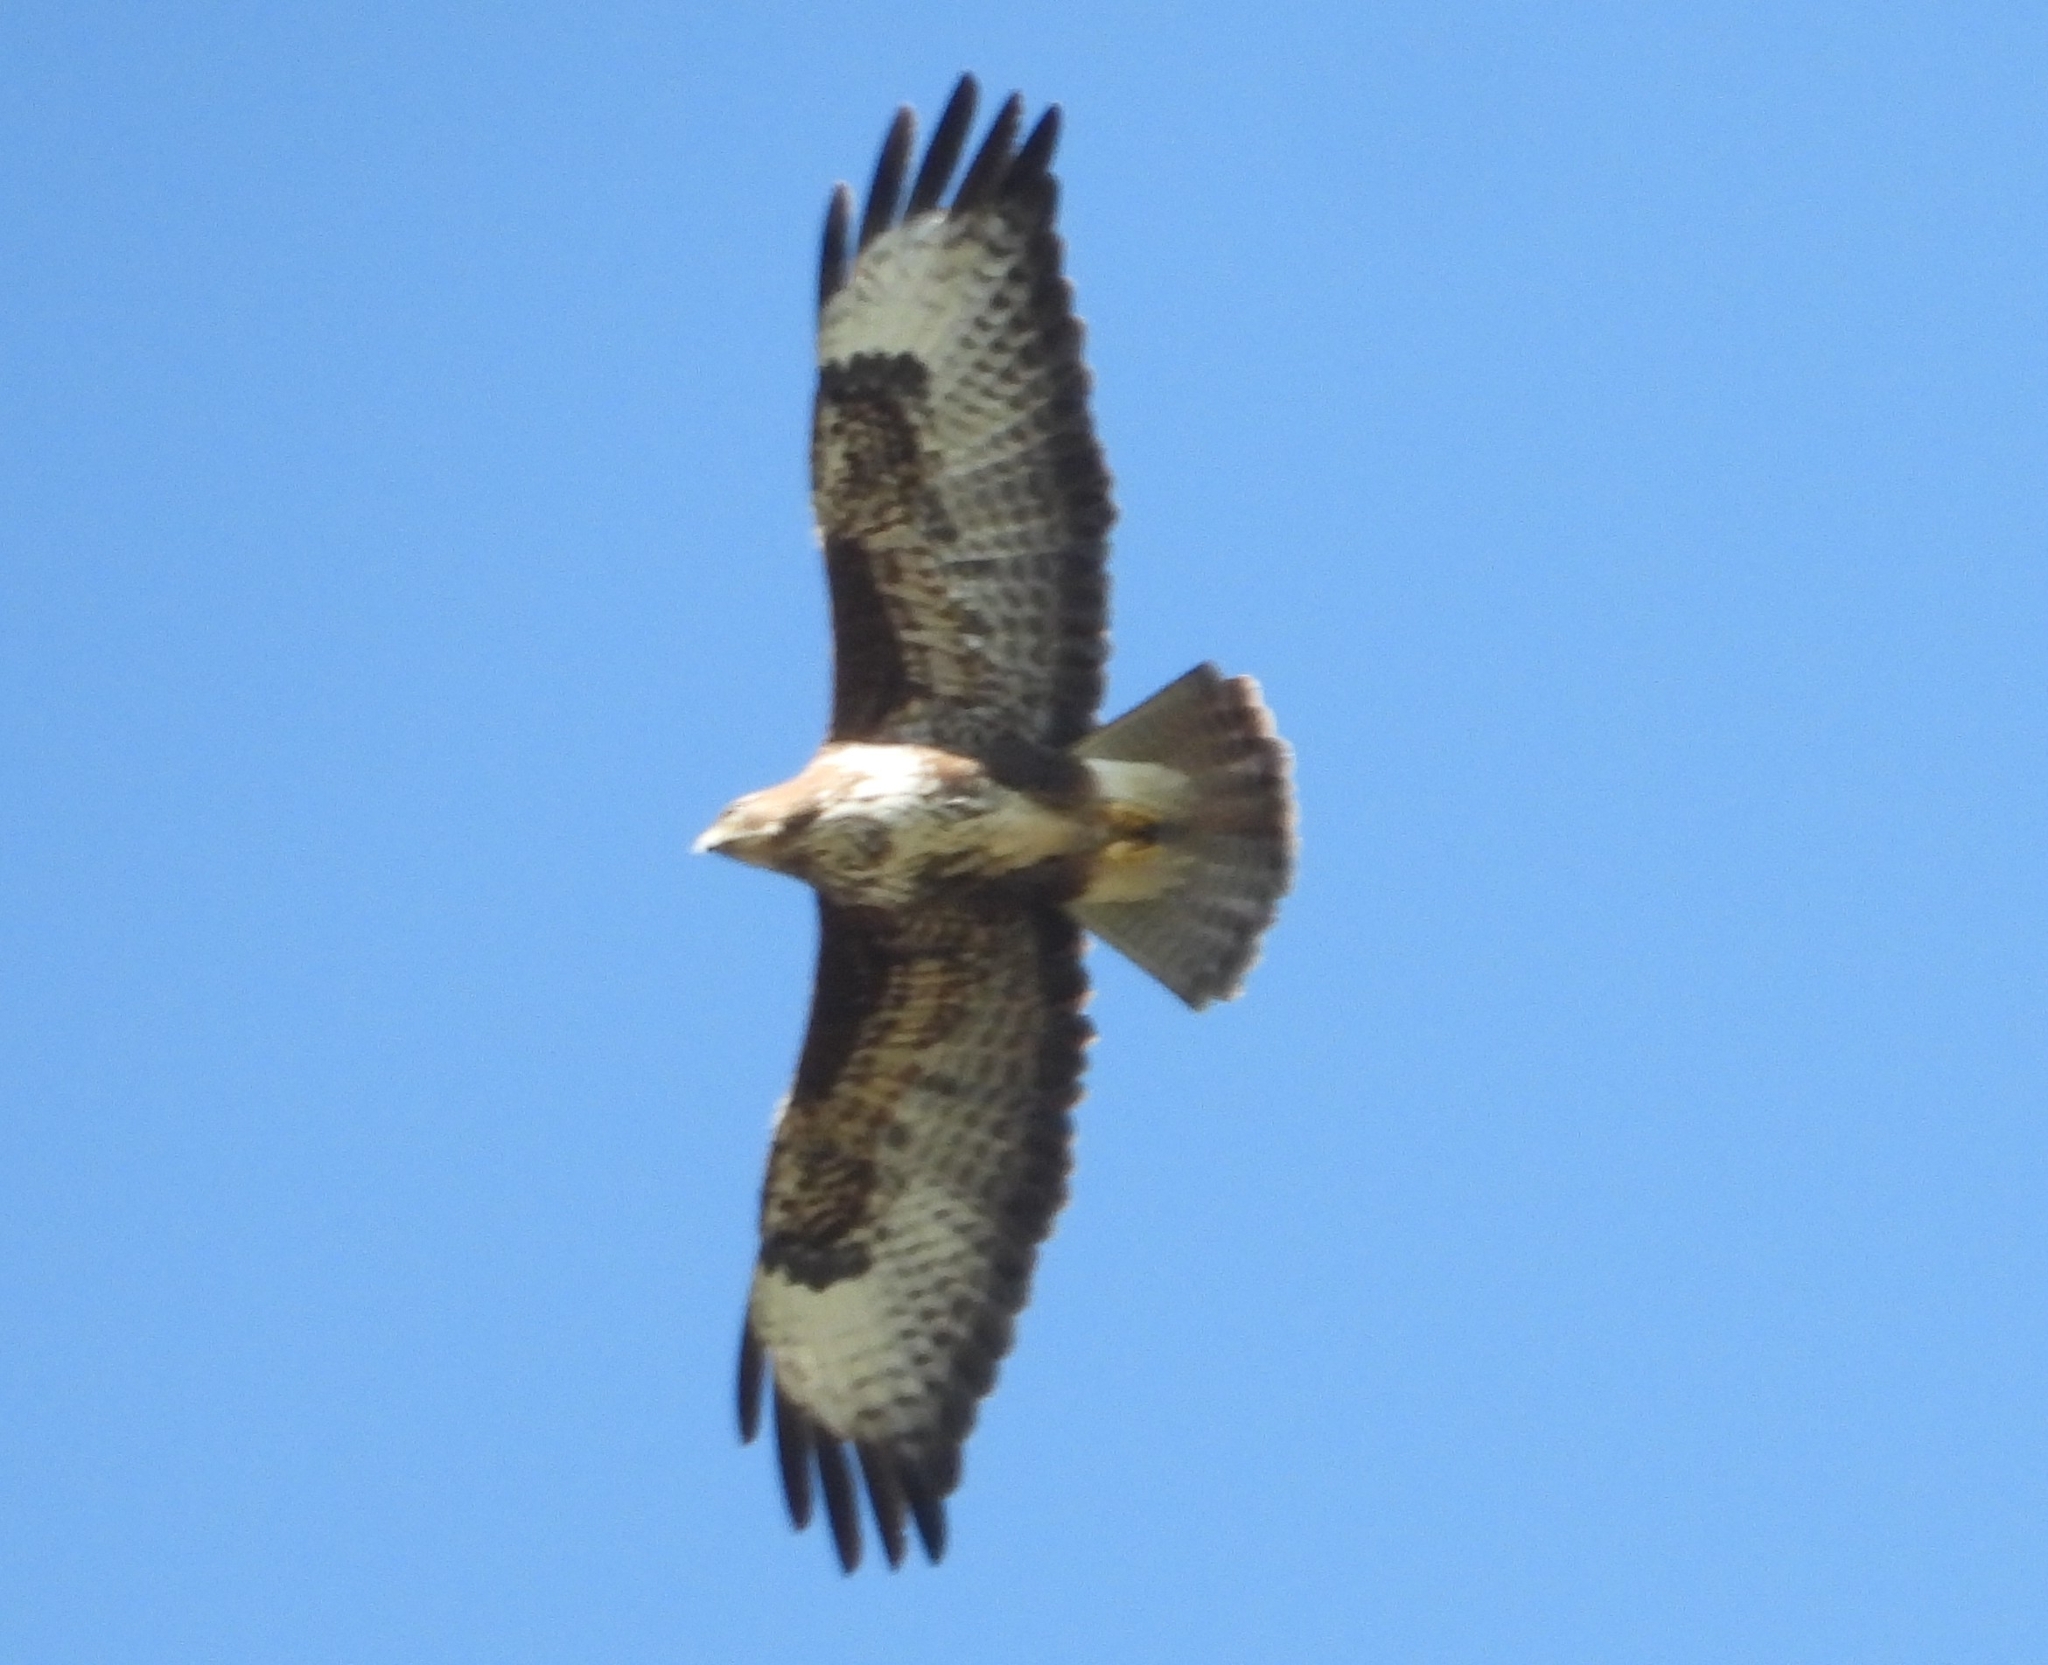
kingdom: Animalia
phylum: Chordata
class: Aves
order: Accipitriformes
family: Accipitridae
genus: Buteo
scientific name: Buteo buteo
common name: Common buzzard
